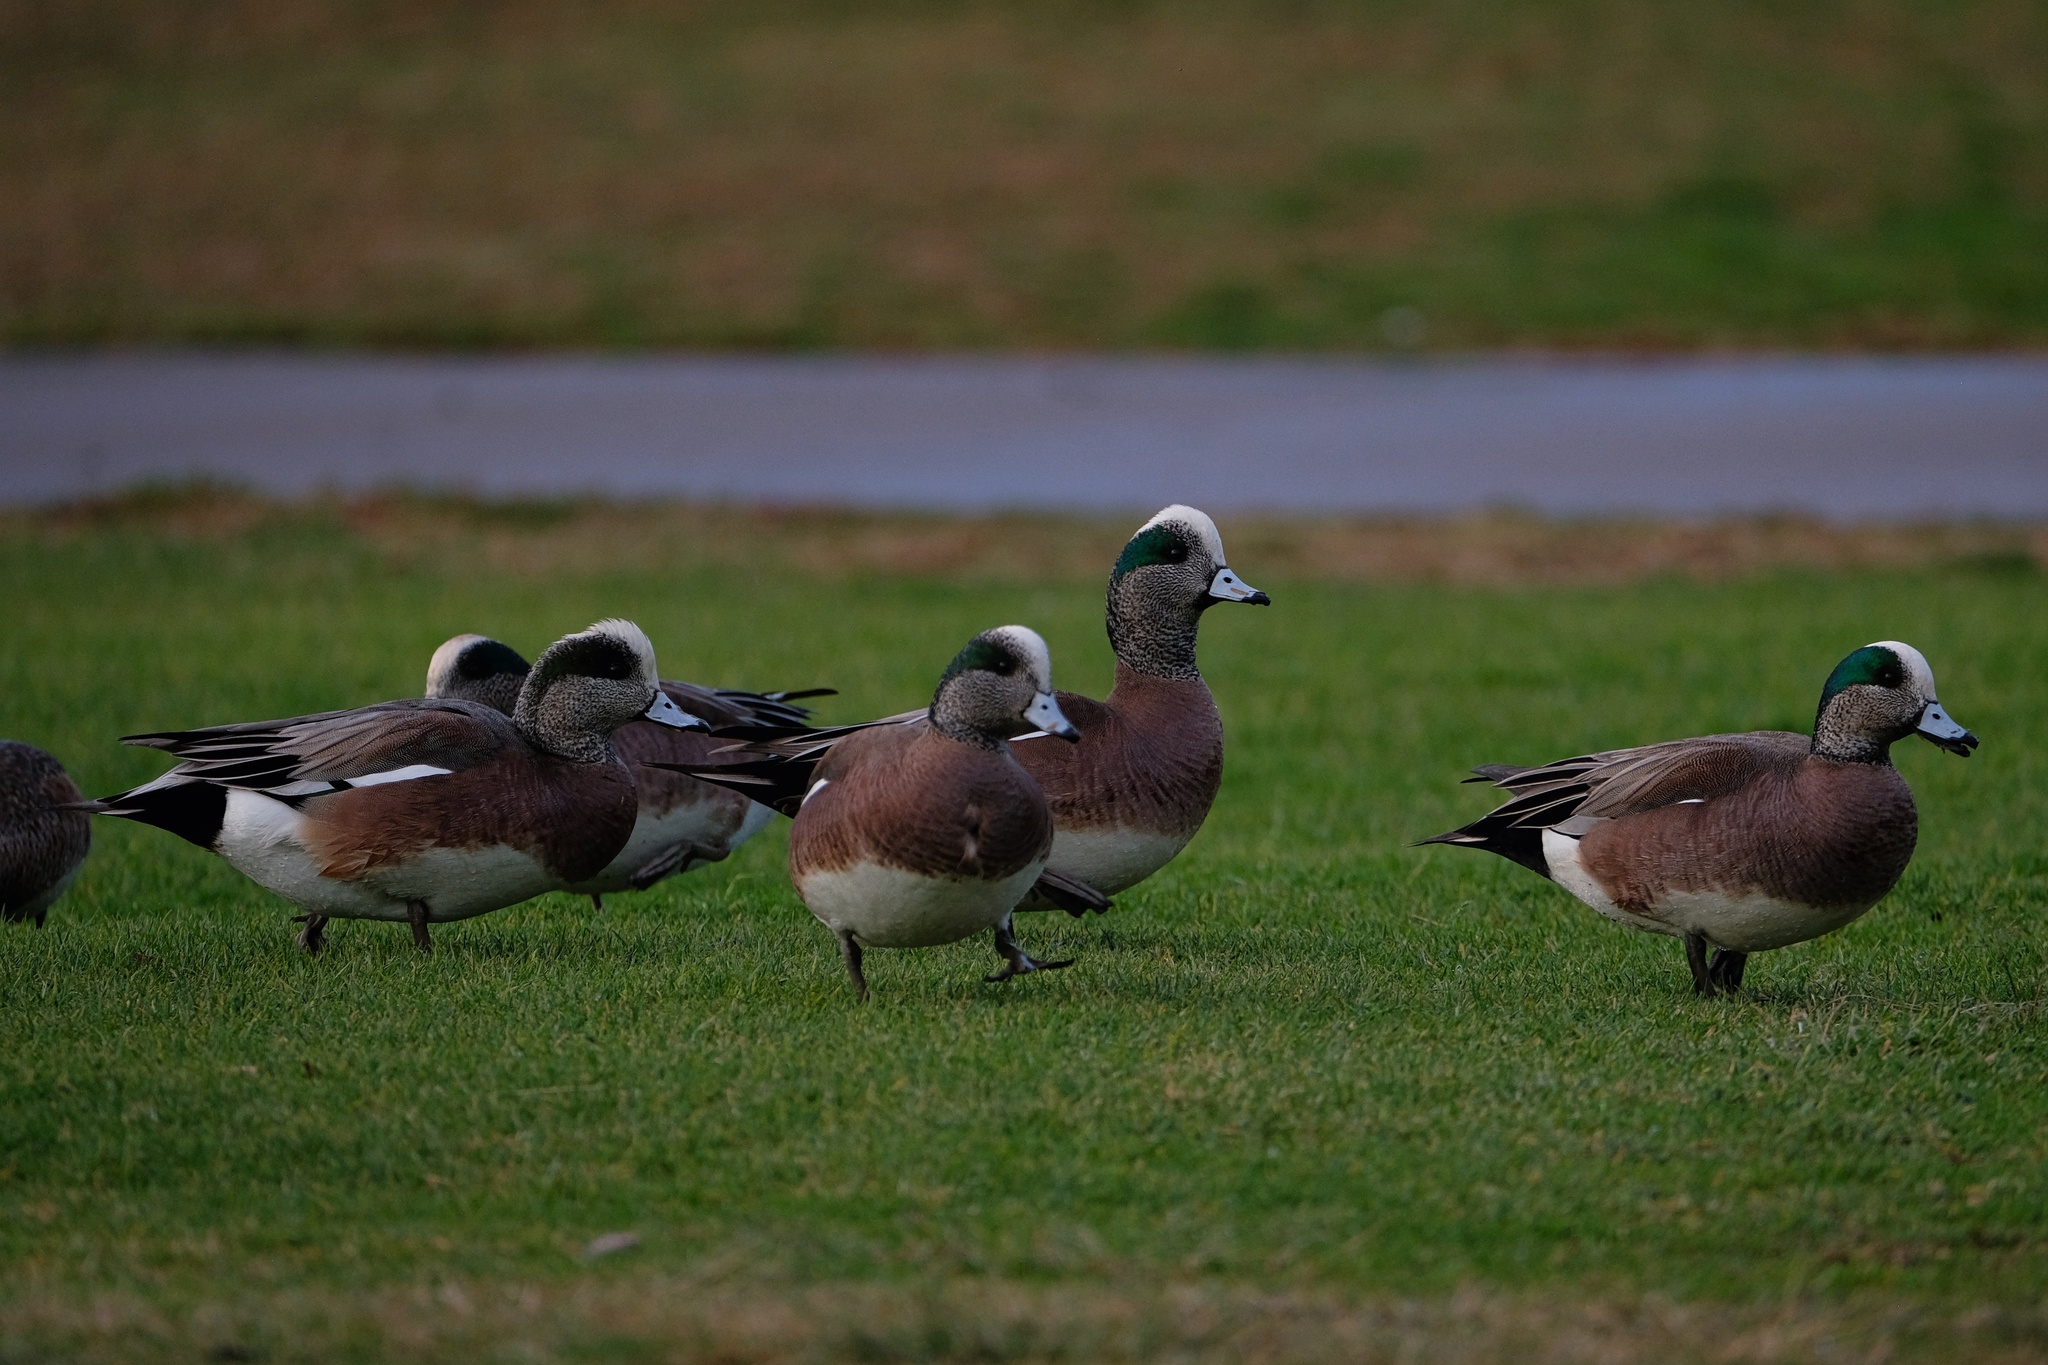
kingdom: Animalia
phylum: Chordata
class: Aves
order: Anseriformes
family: Anatidae
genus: Mareca
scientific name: Mareca americana
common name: American wigeon
